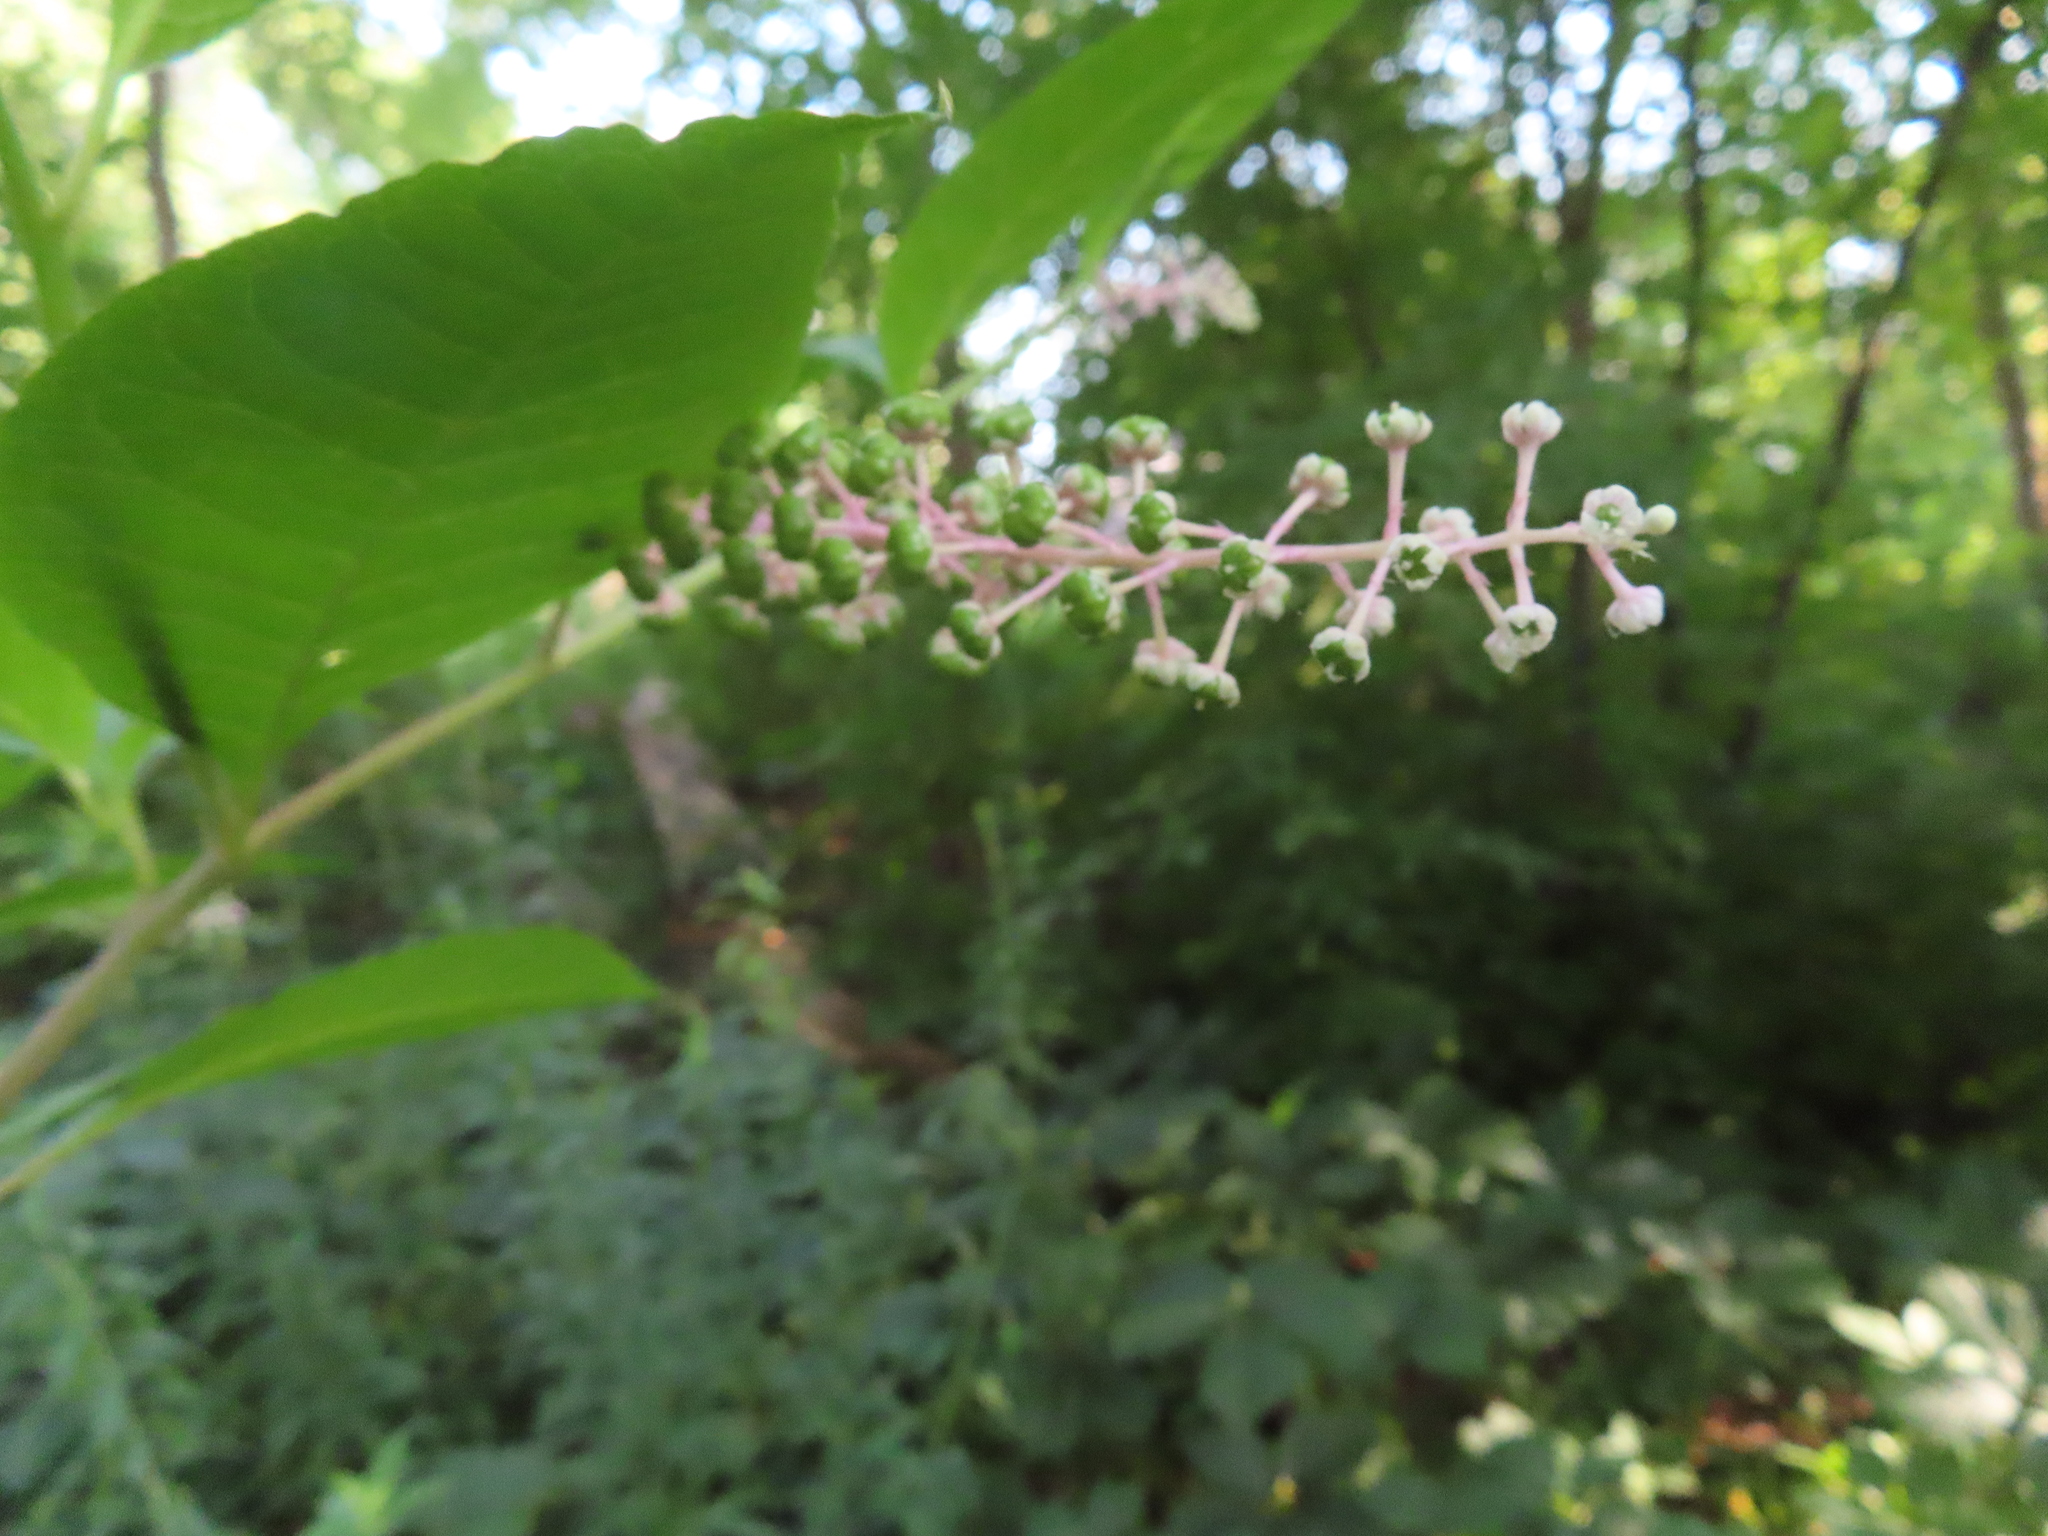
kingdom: Plantae
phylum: Tracheophyta
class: Magnoliopsida
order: Caryophyllales
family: Phytolaccaceae
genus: Phytolacca
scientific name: Phytolacca americana
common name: American pokeweed
